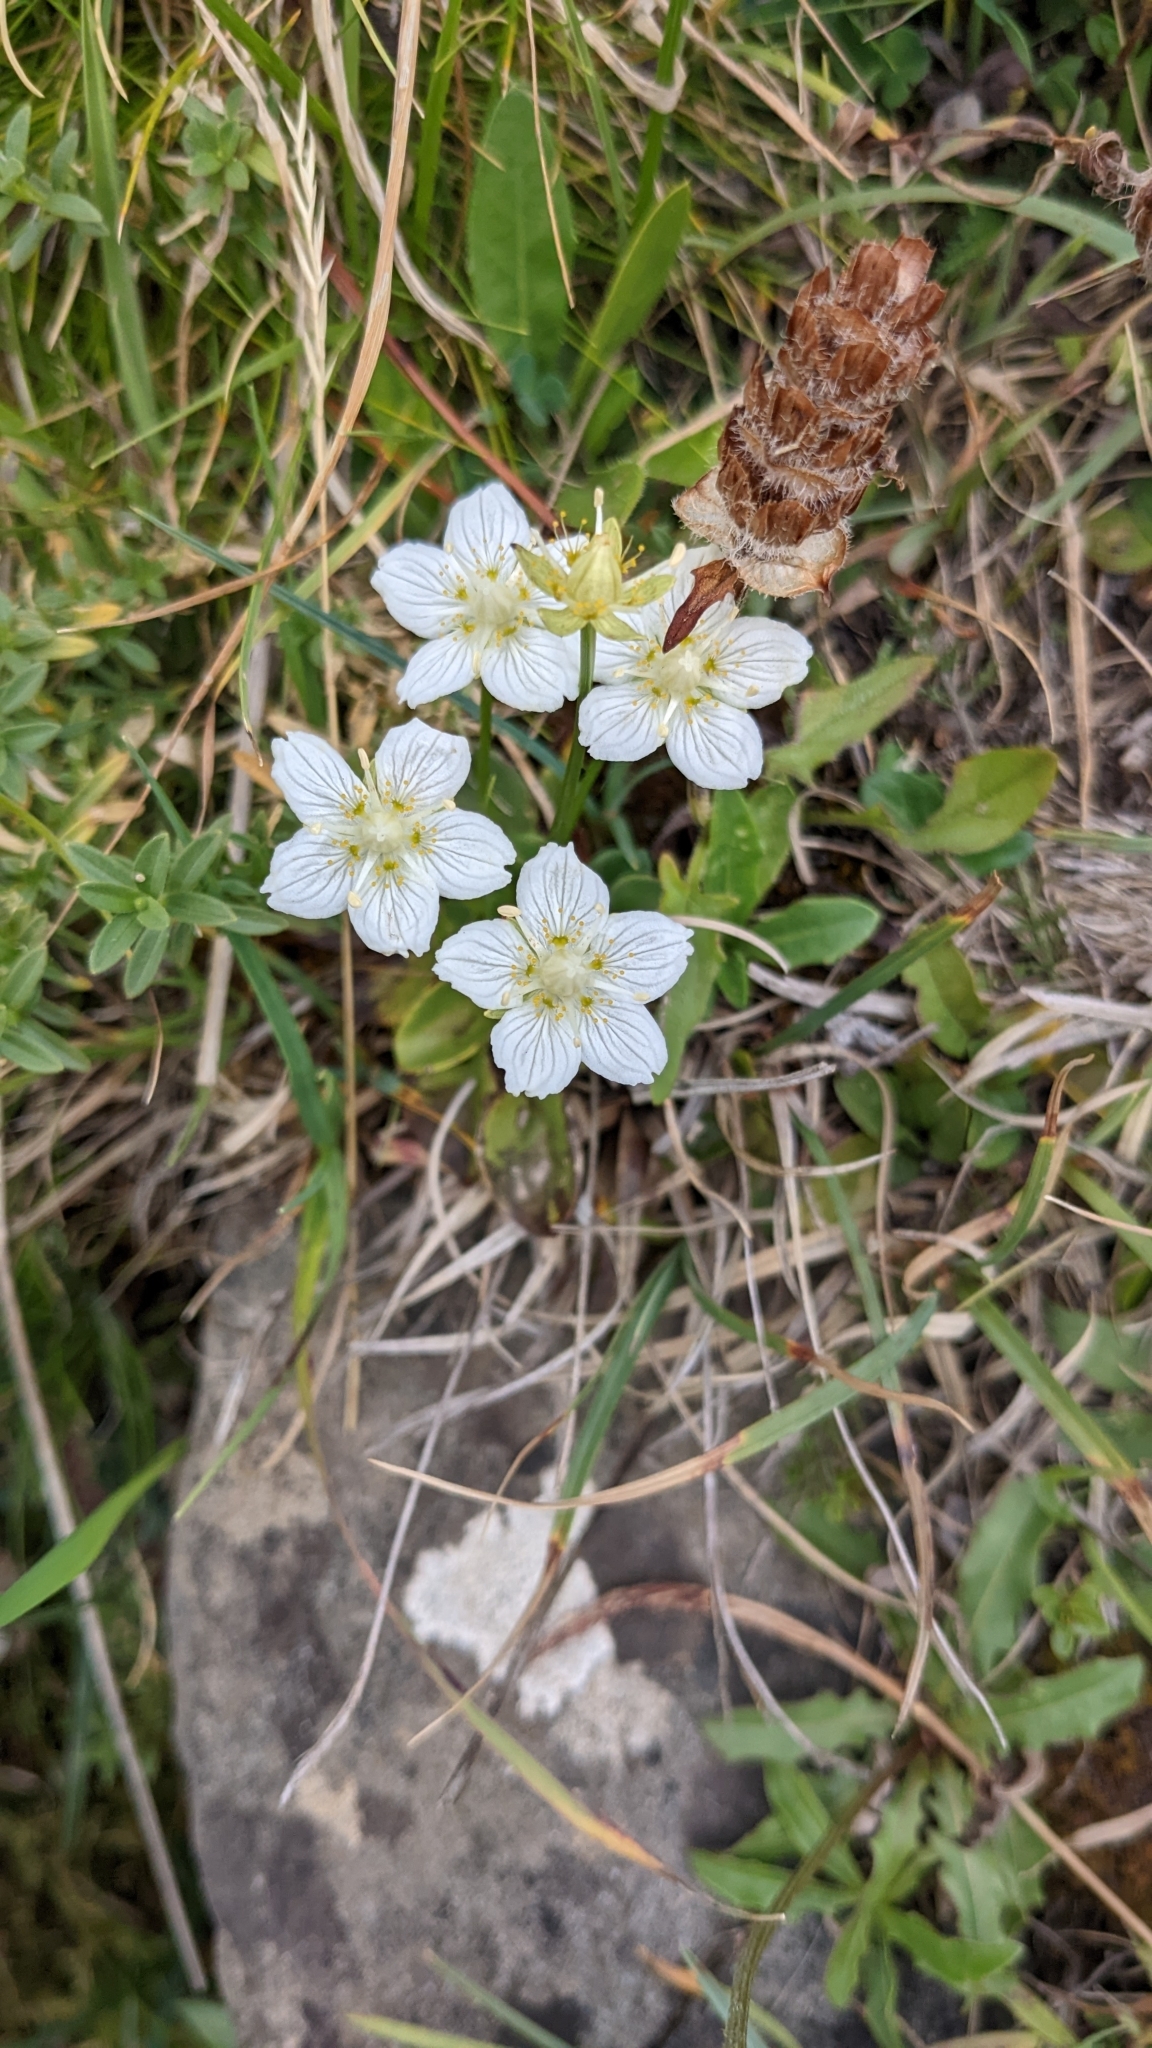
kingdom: Plantae
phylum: Tracheophyta
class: Magnoliopsida
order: Celastrales
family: Parnassiaceae
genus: Parnassia
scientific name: Parnassia palustris
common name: Grass-of-parnassus
